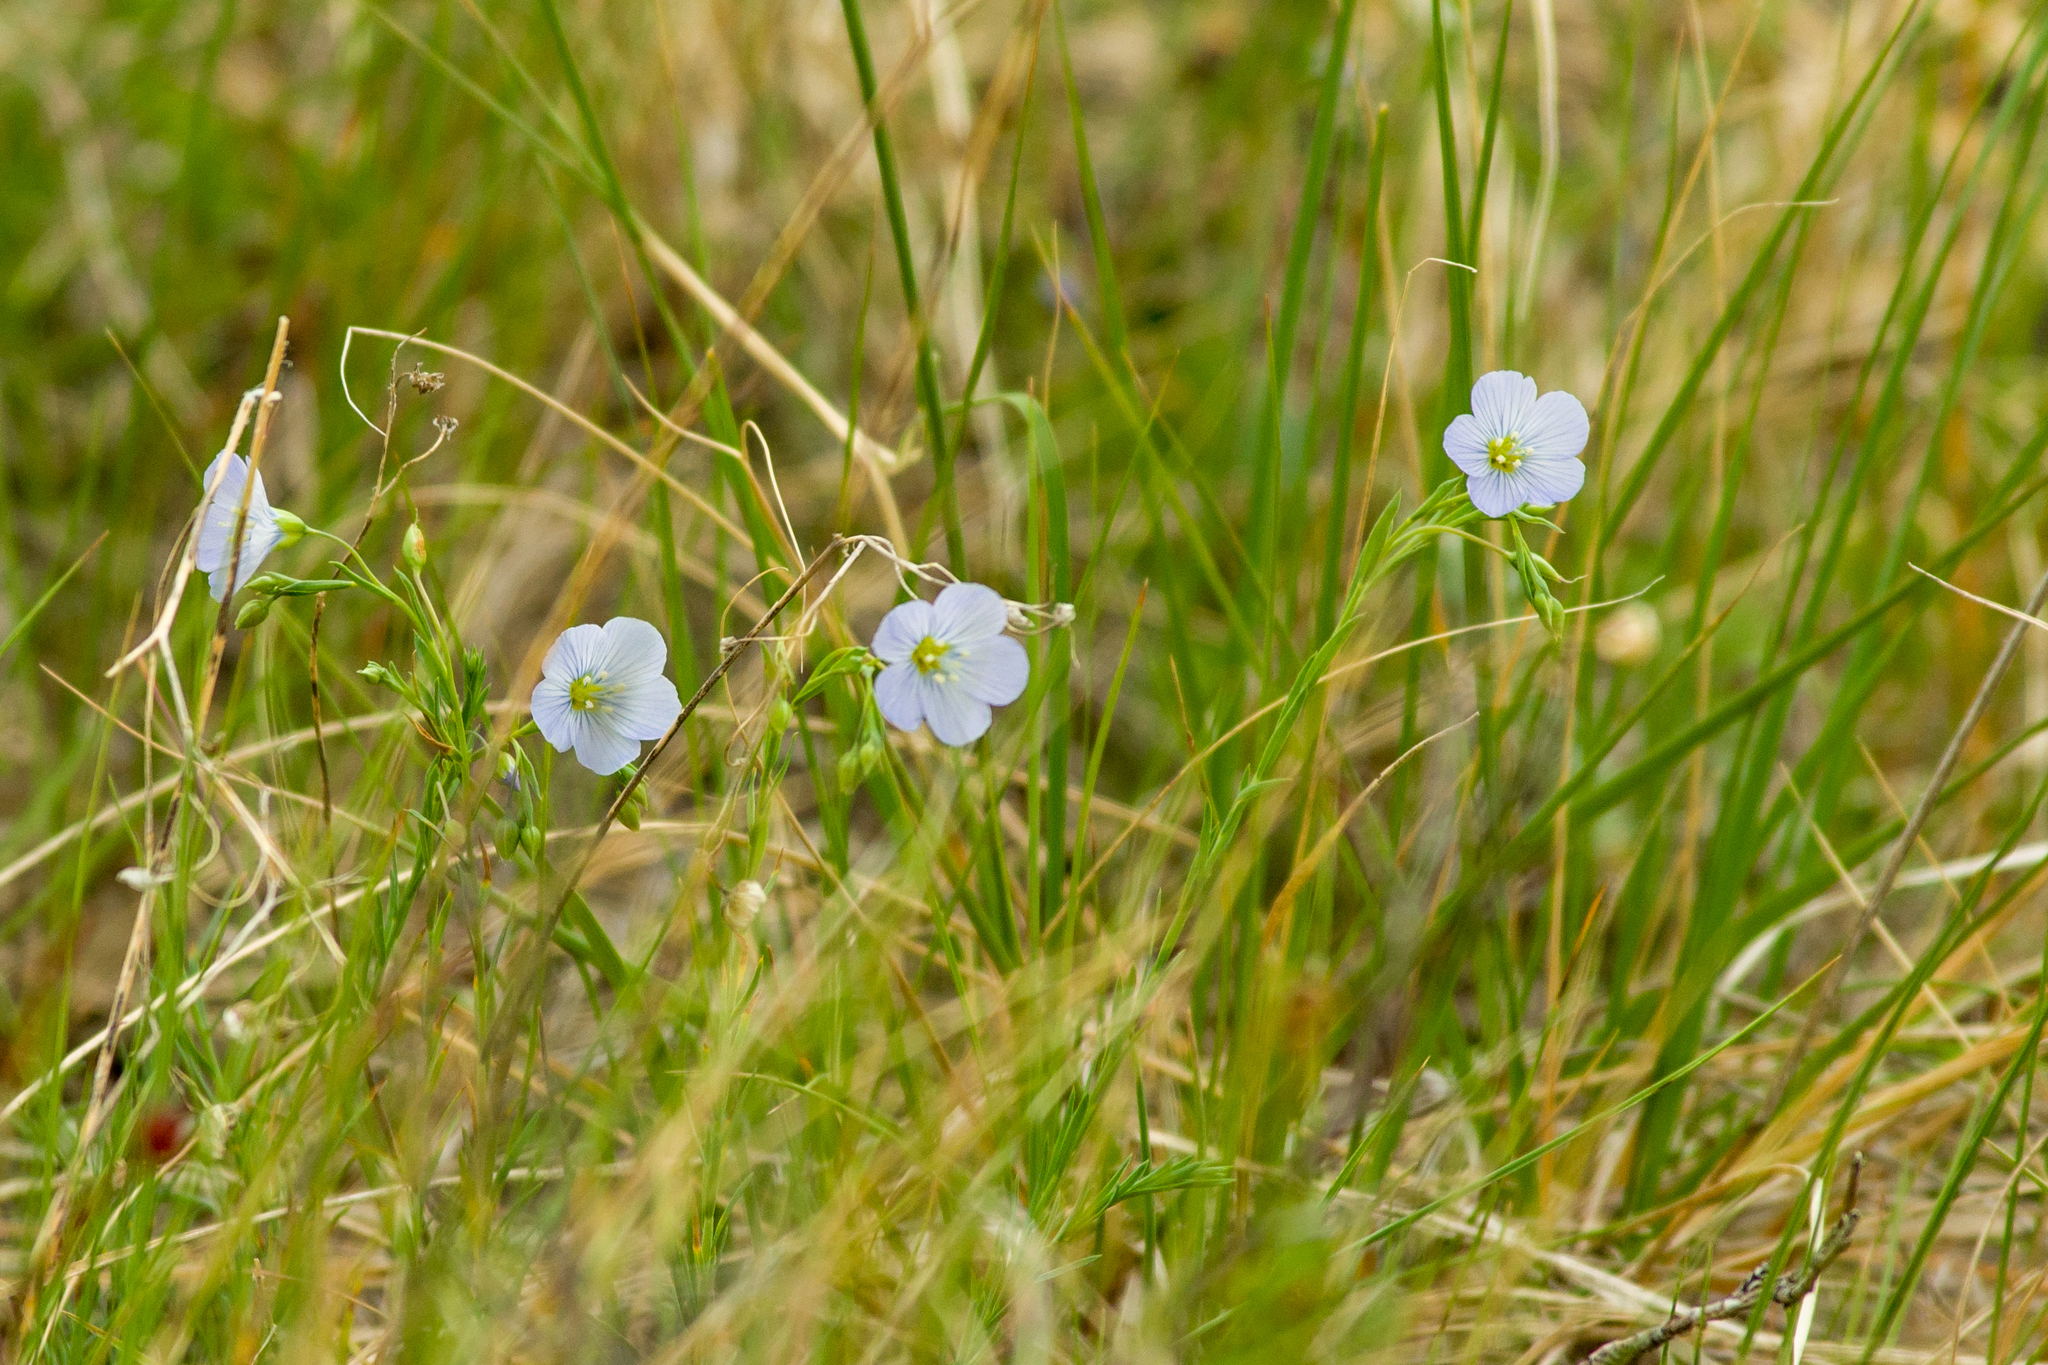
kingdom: Plantae
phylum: Tracheophyta
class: Magnoliopsida
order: Malpighiales
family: Linaceae
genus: Linum
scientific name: Linum lewisii
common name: Prairie flax
